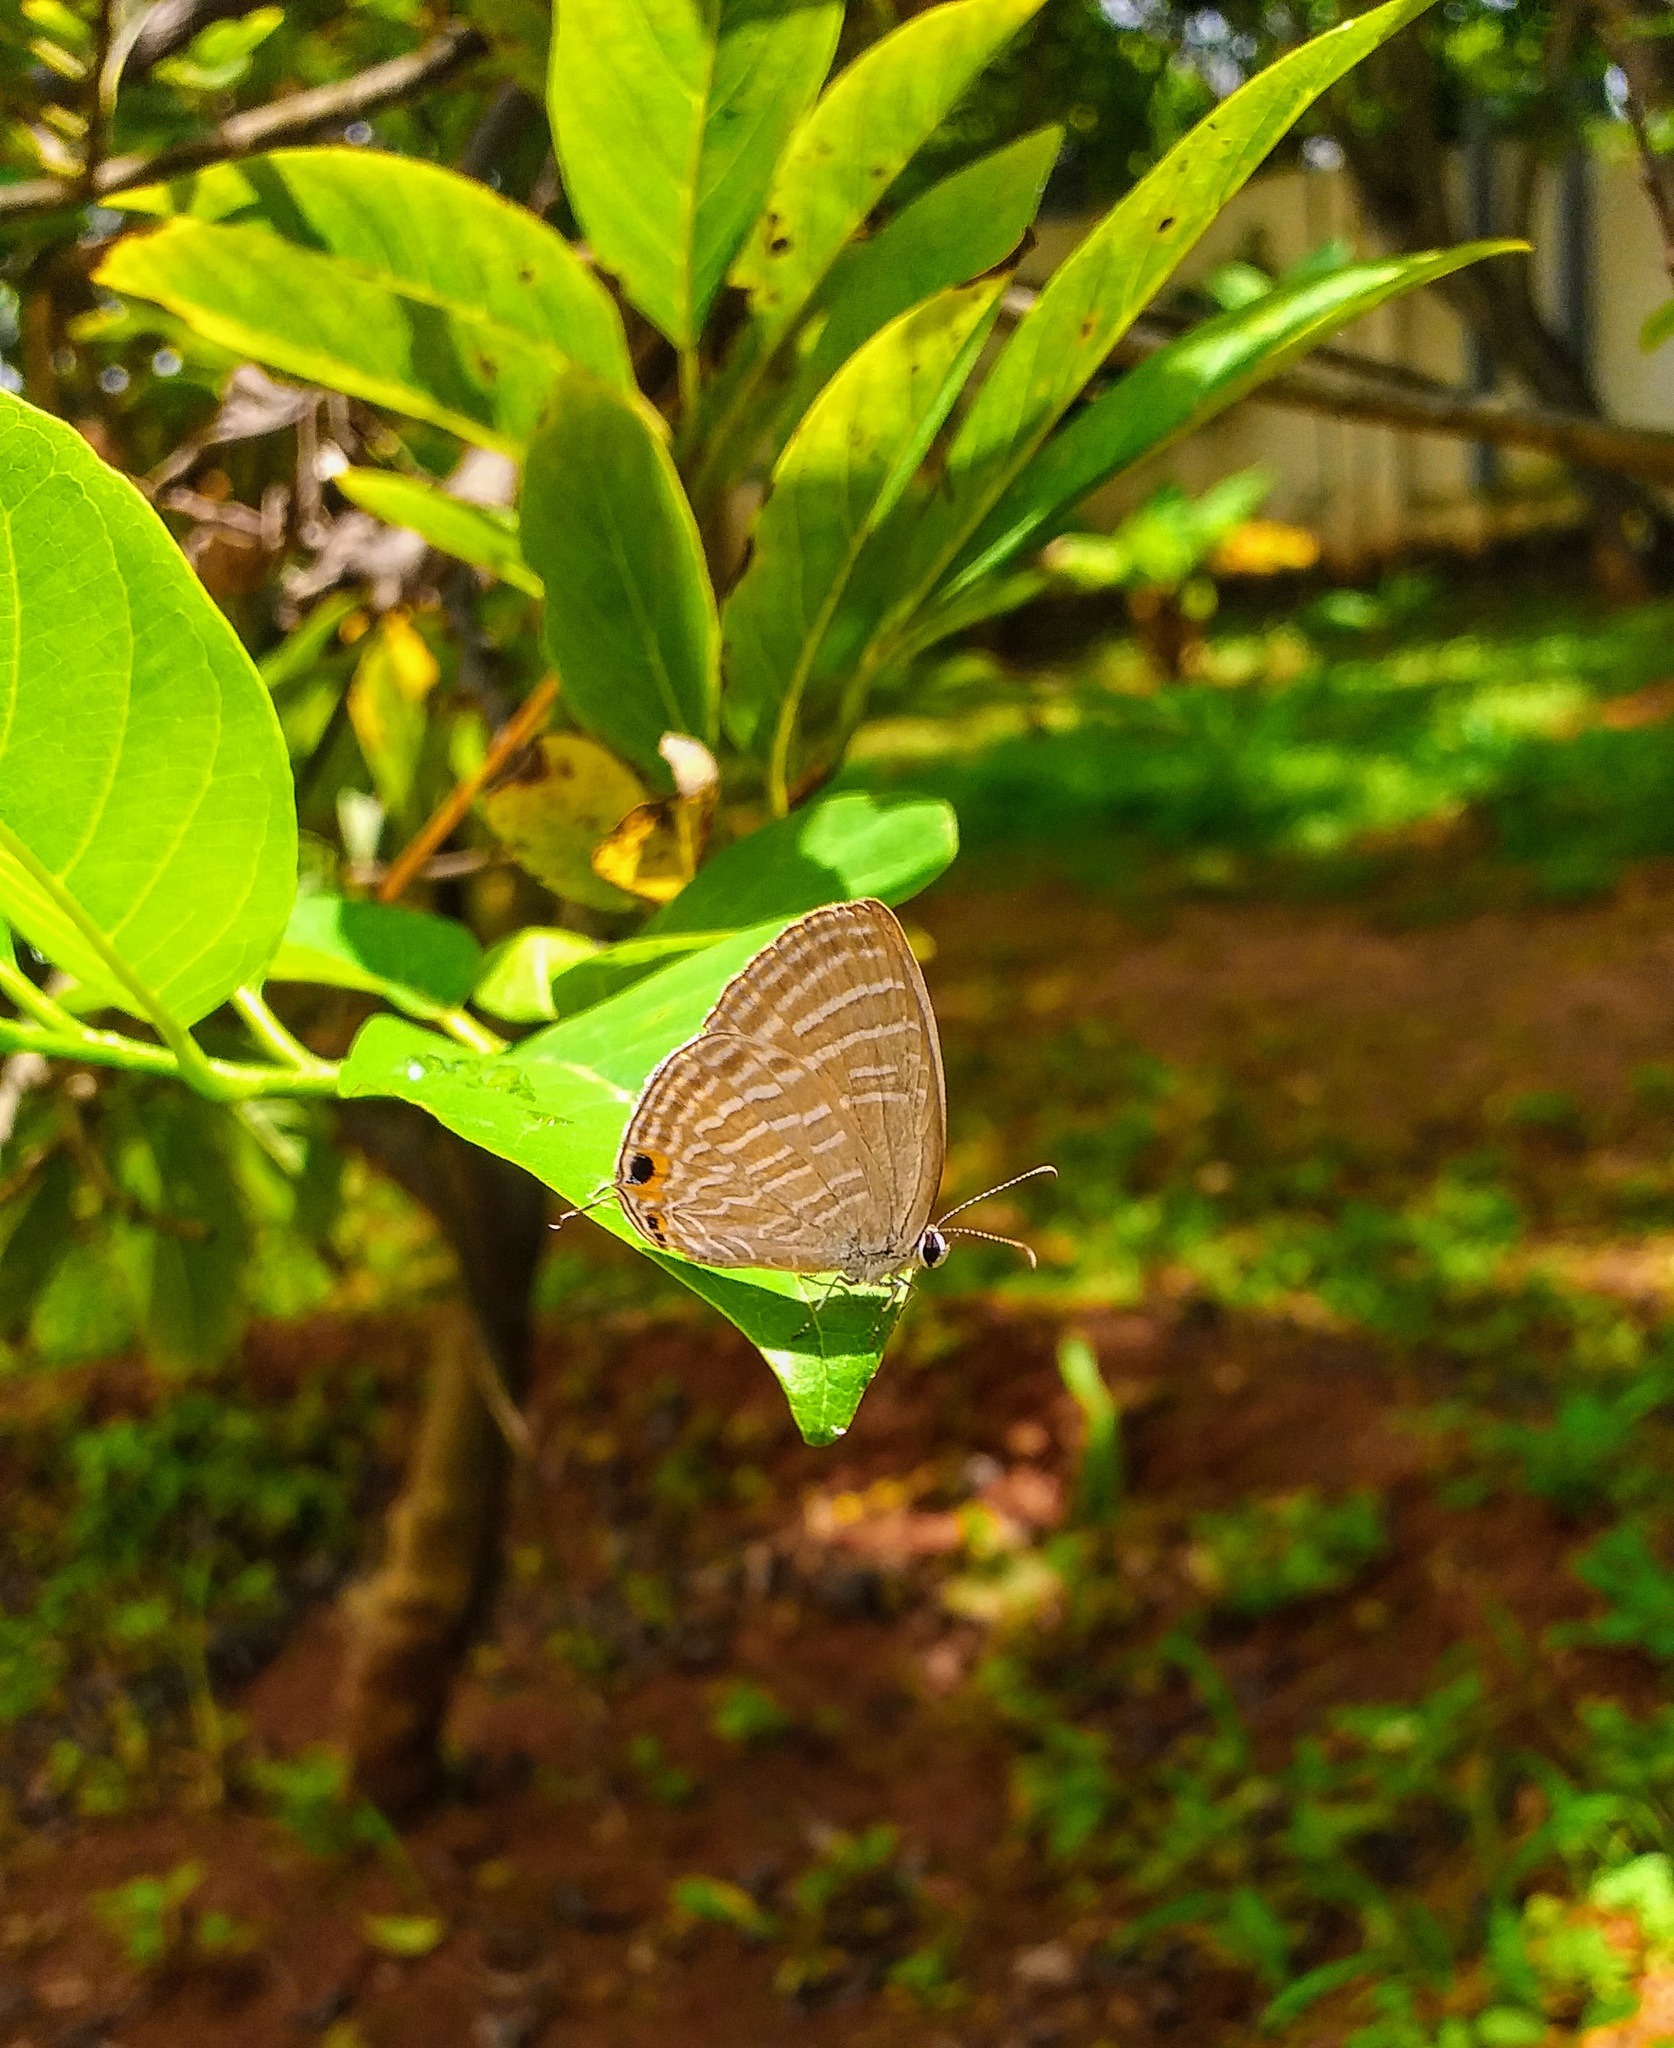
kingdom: Animalia
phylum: Arthropoda
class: Insecta
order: Lepidoptera
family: Lycaenidae
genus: Jamides
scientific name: Jamides celeno
